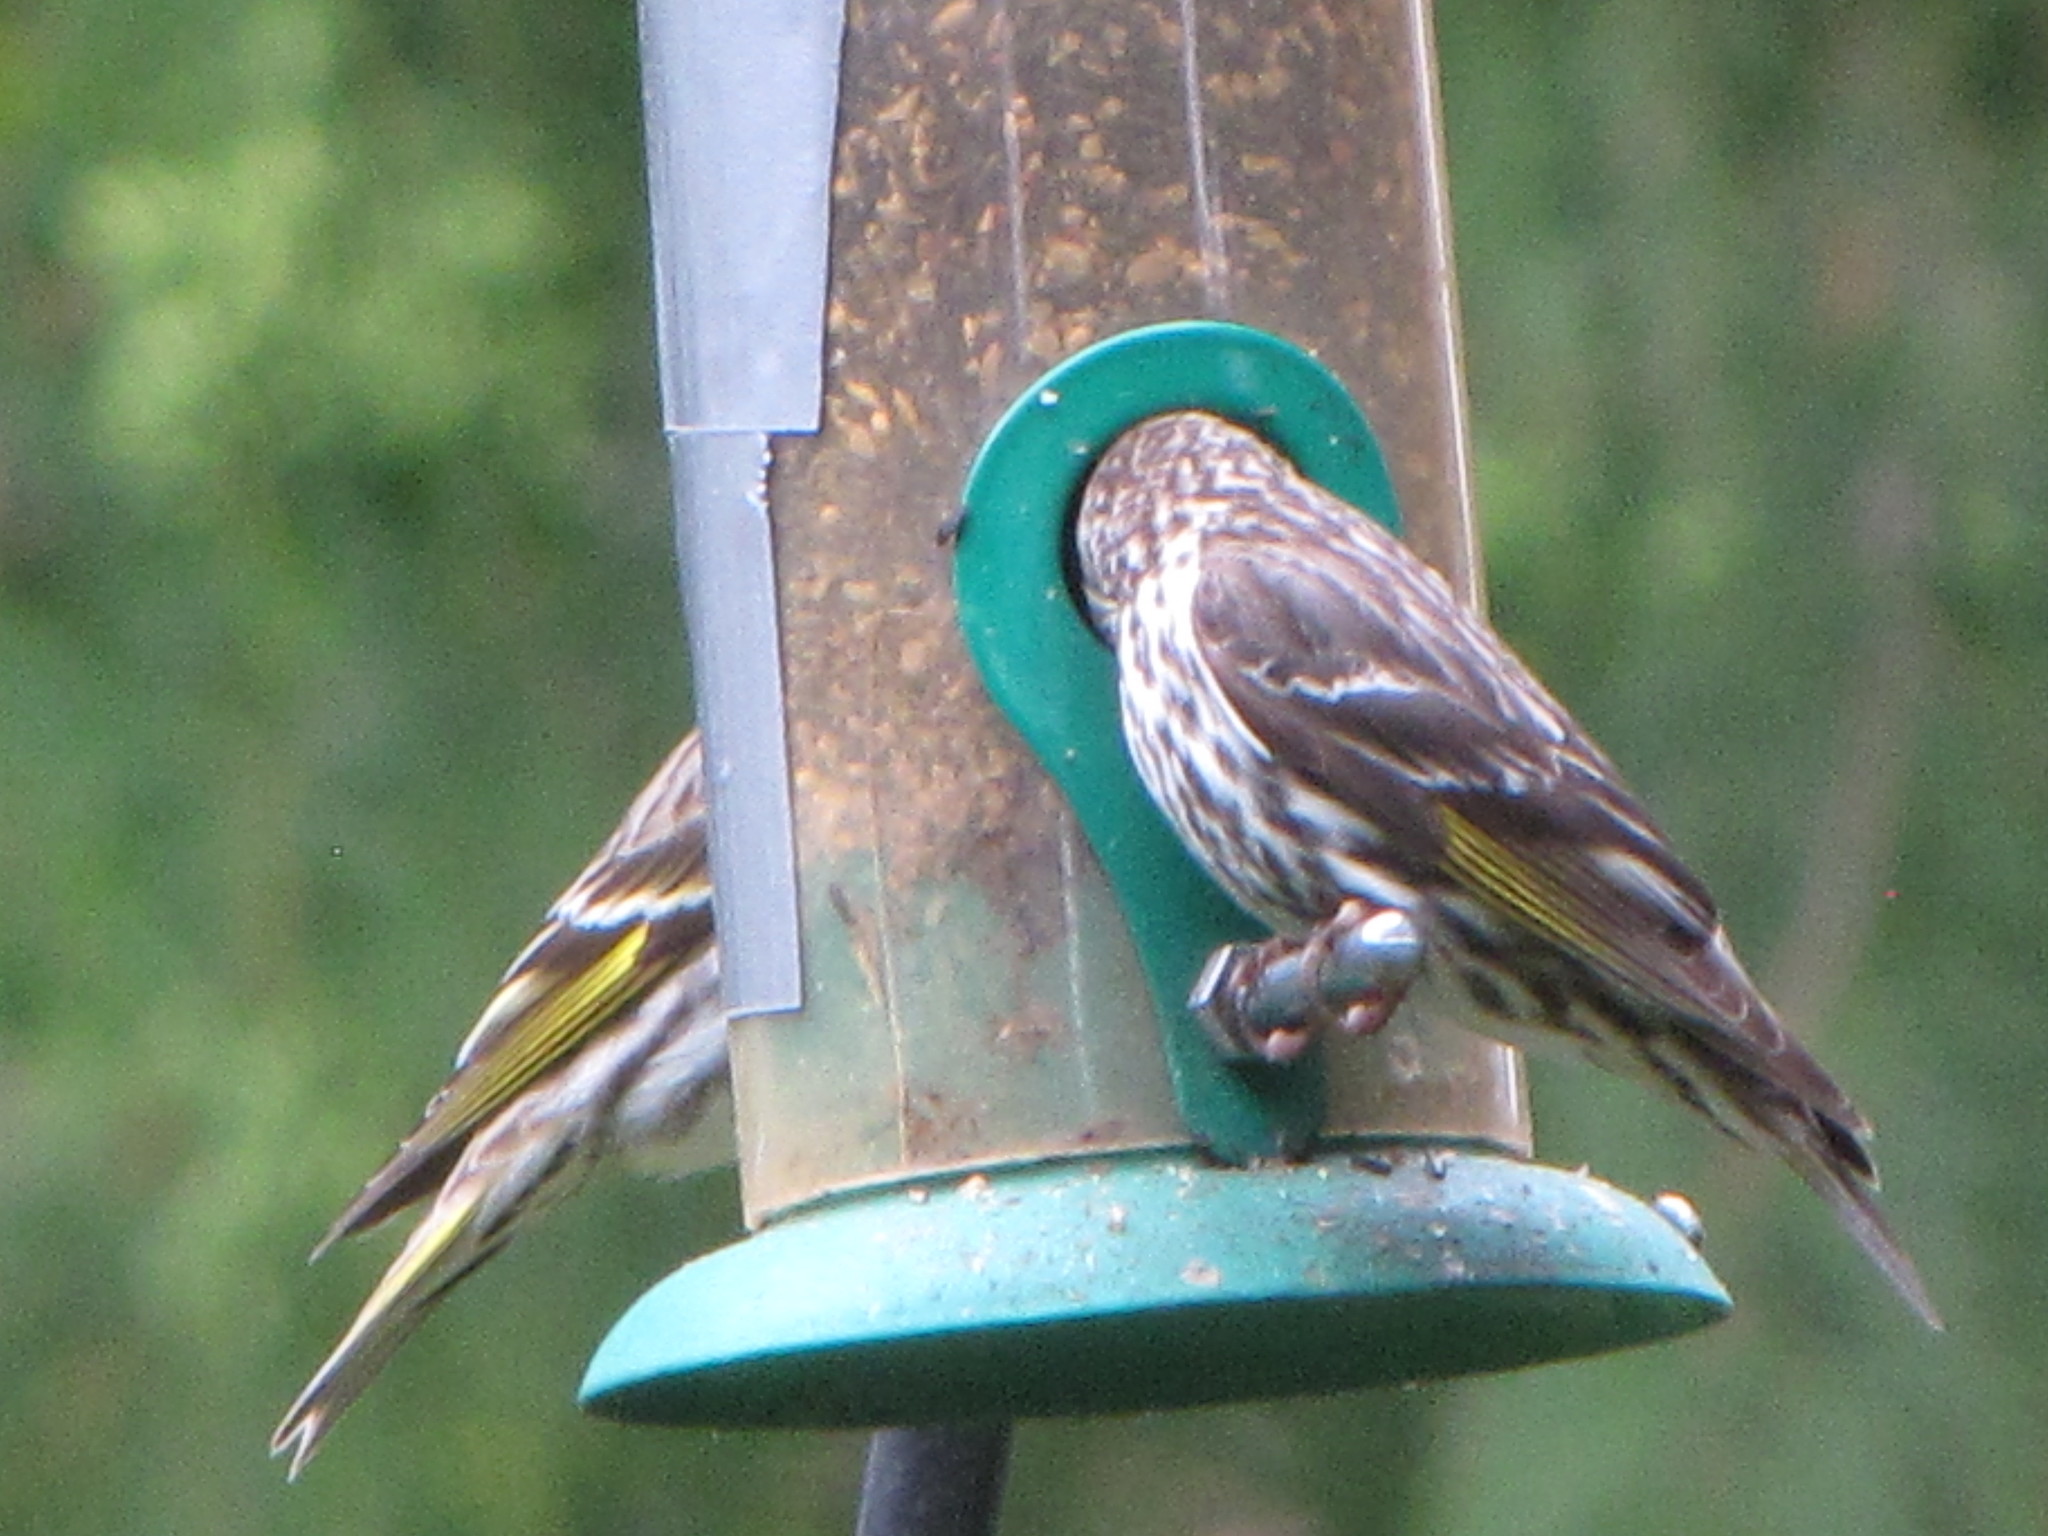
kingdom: Animalia
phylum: Chordata
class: Aves
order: Passeriformes
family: Fringillidae
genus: Spinus
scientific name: Spinus pinus
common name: Pine siskin
